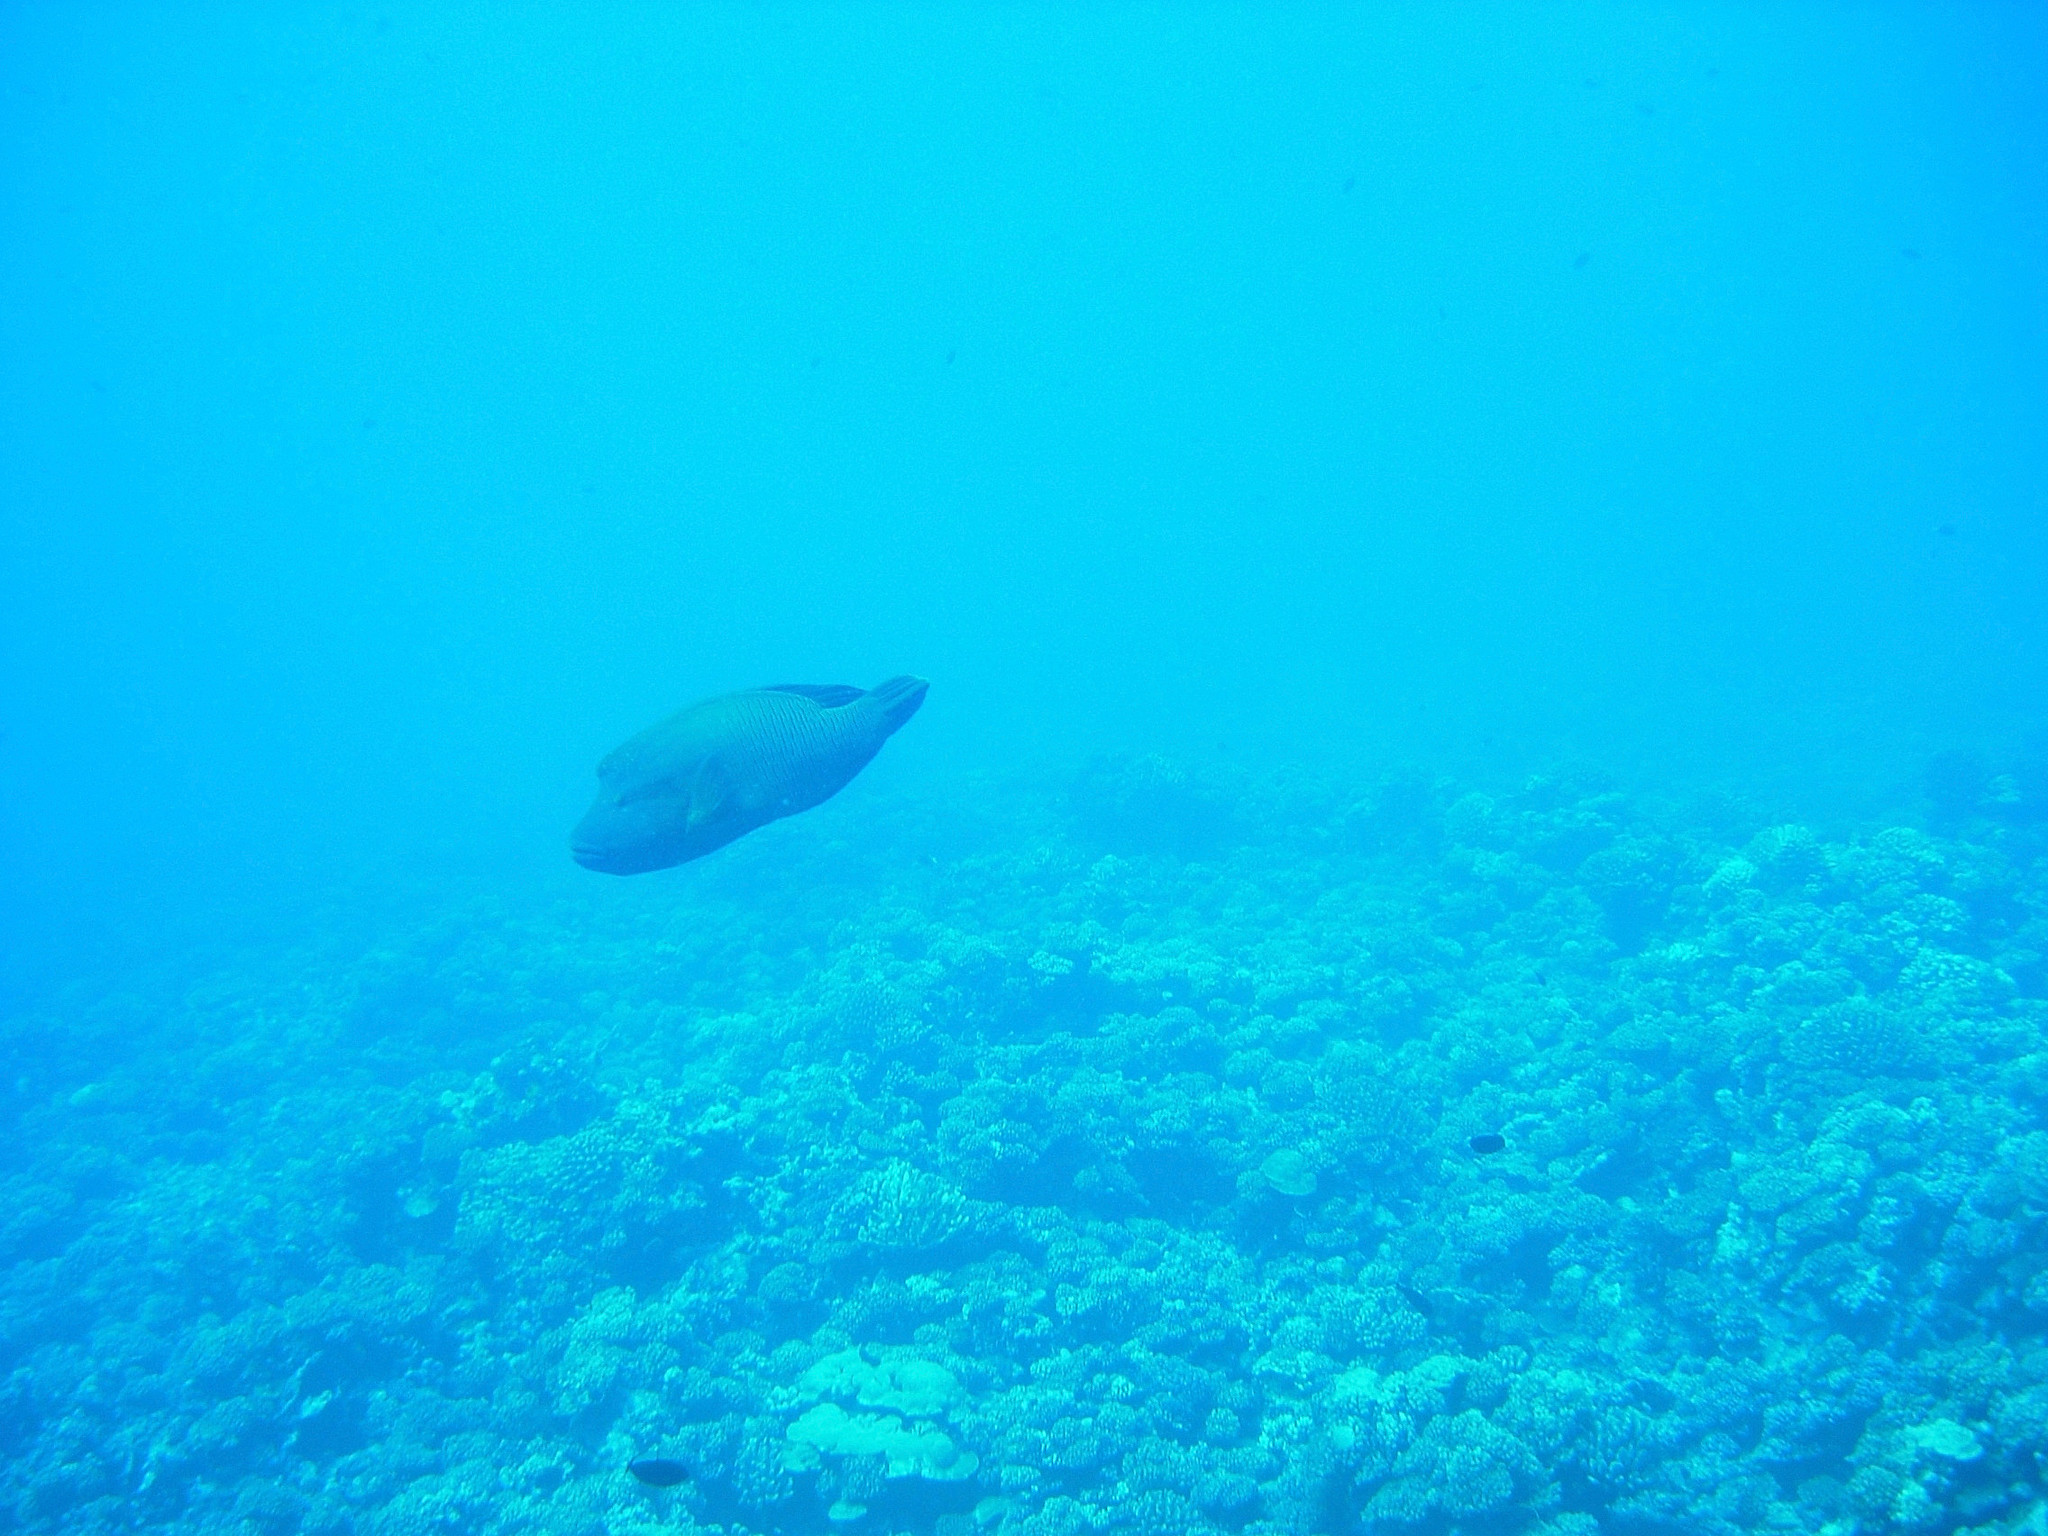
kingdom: Animalia
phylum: Chordata
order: Perciformes
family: Labridae
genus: Cheilinus
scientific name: Cheilinus undulatus
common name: Humphead wrasse
